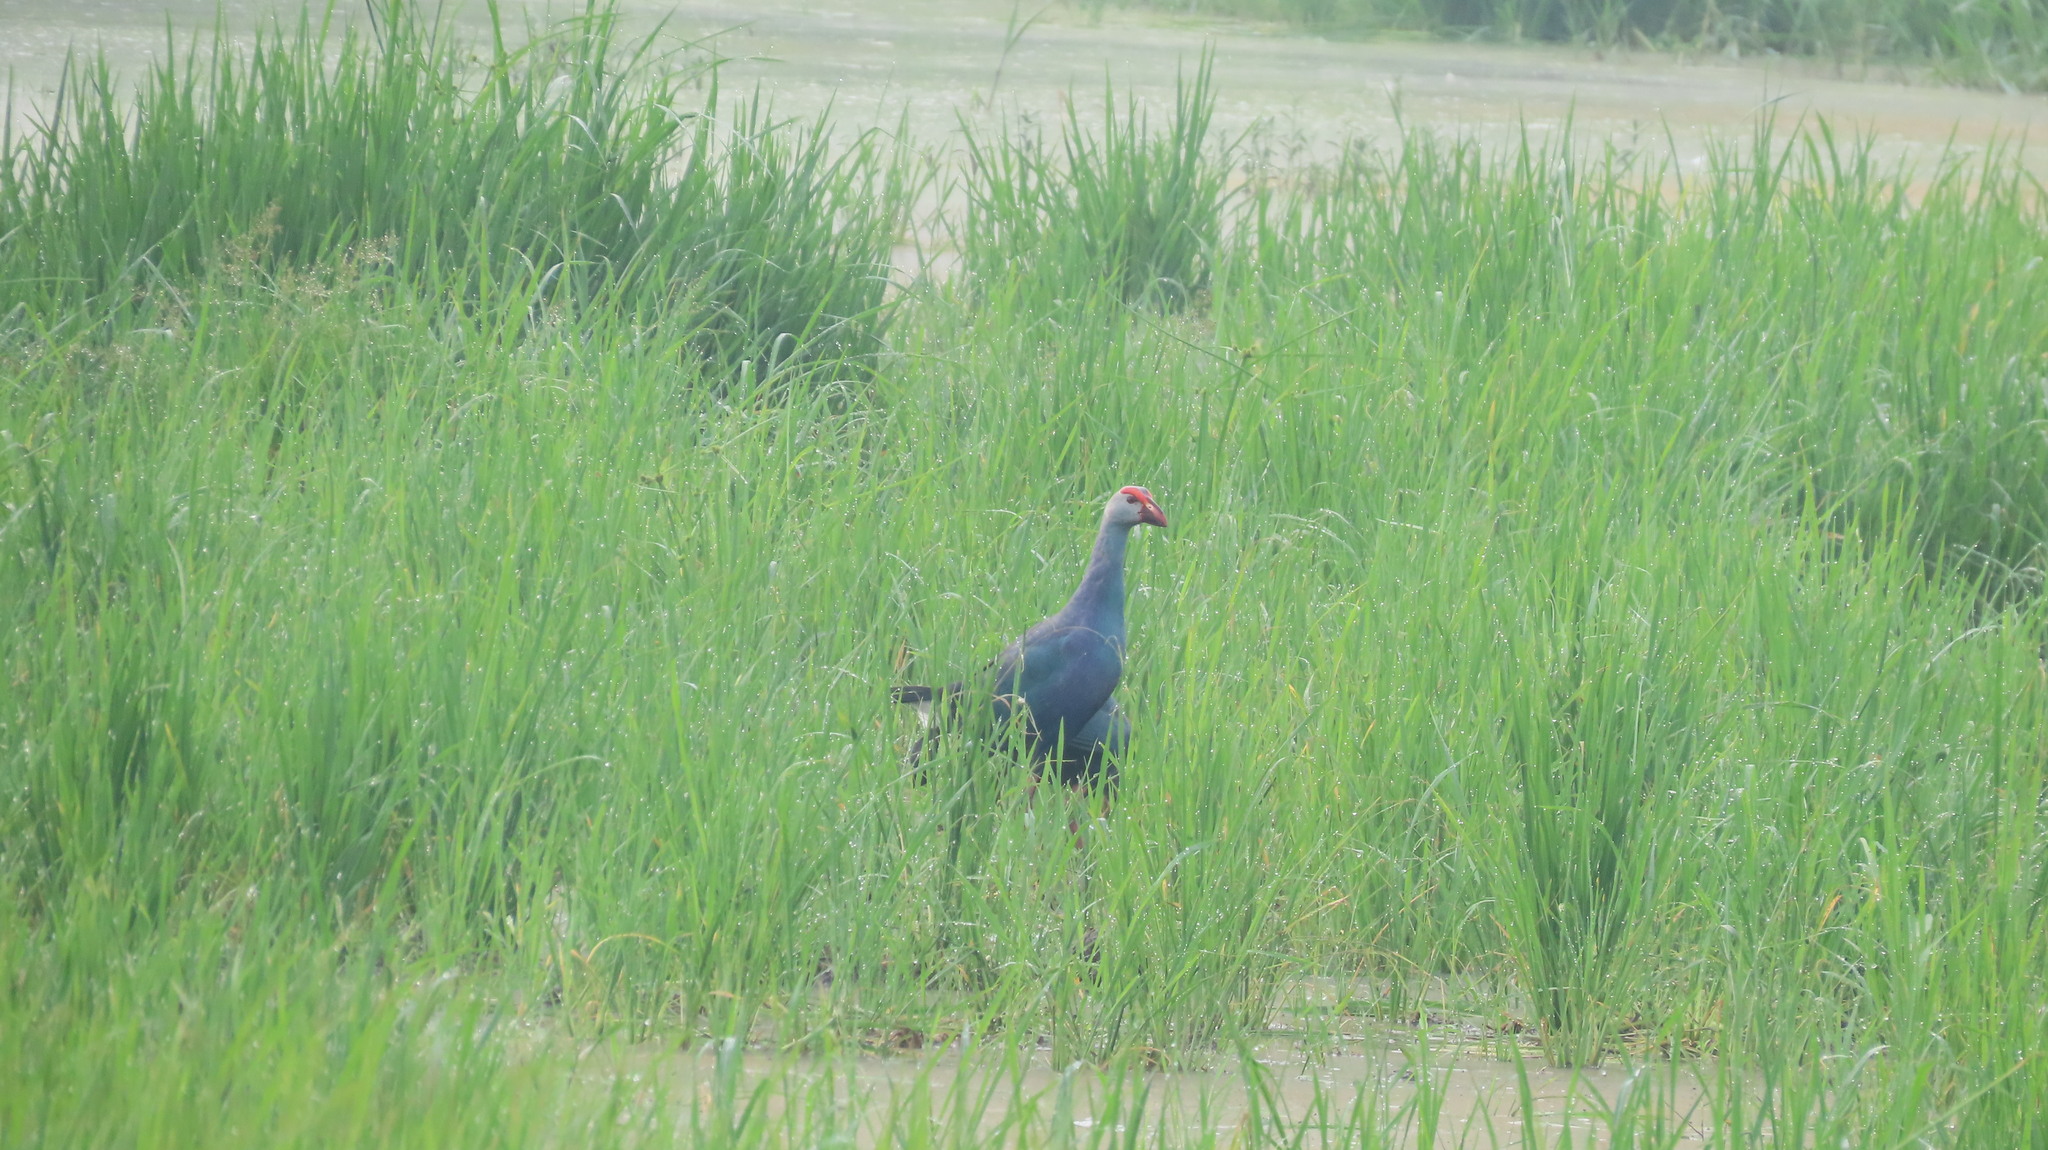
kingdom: Animalia
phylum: Chordata
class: Aves
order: Gruiformes
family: Rallidae
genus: Porphyrio
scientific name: Porphyrio porphyrio
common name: Purple swamphen
